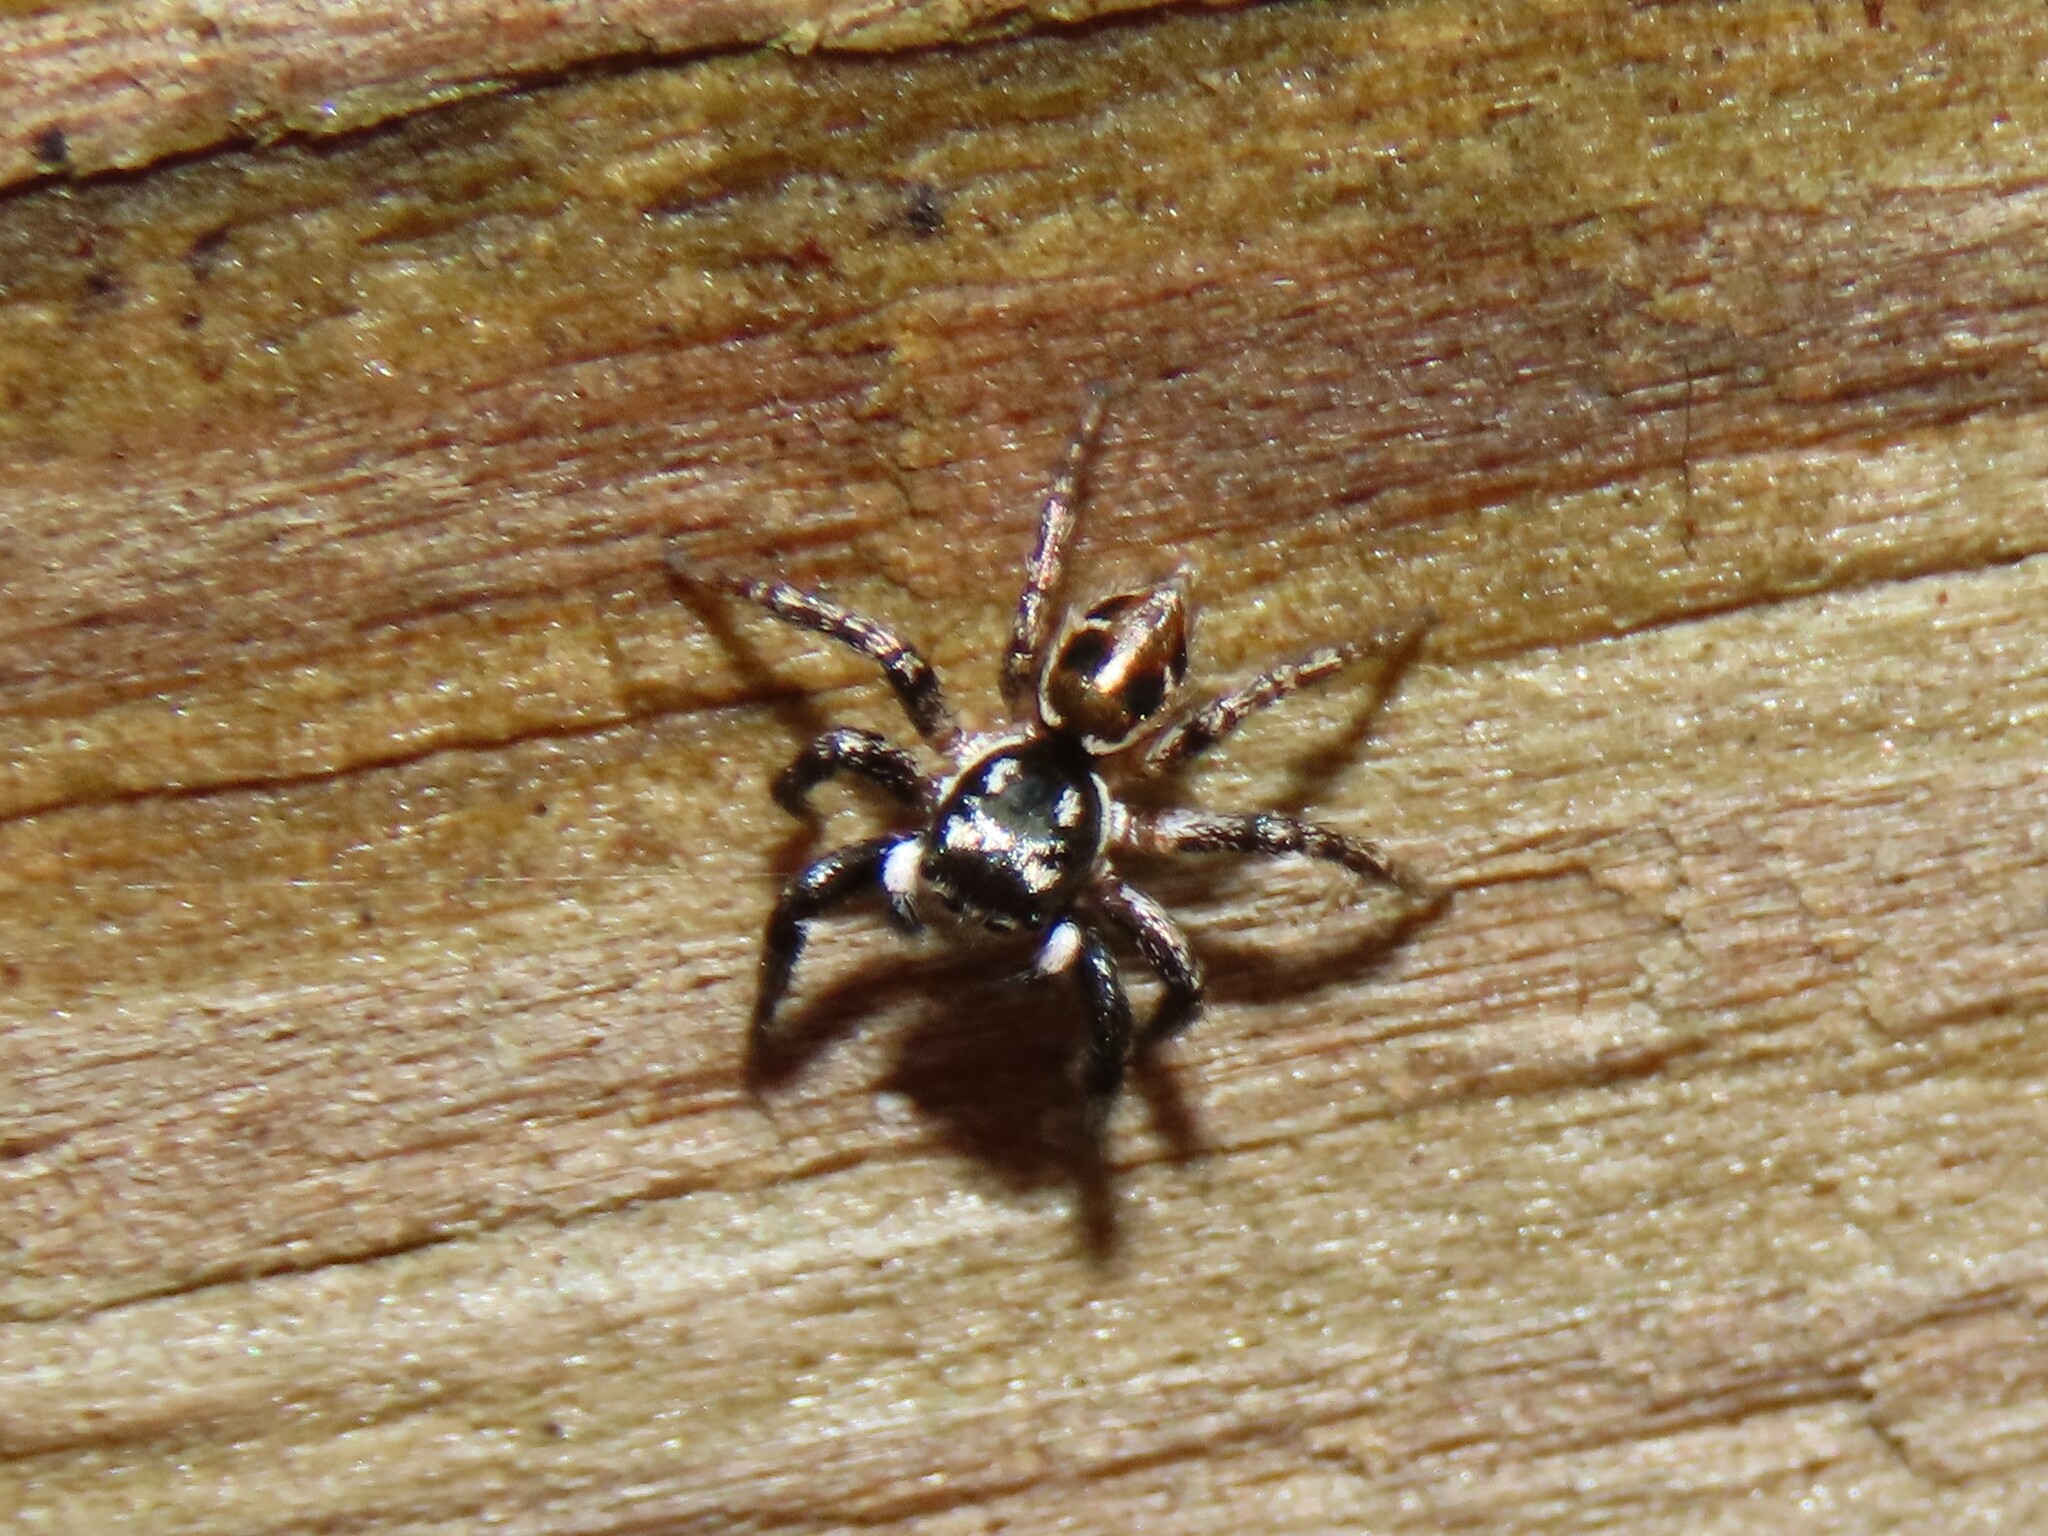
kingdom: Animalia
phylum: Arthropoda
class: Arachnida
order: Araneae
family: Salticidae
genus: Anasaitis
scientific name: Anasaitis canosa
